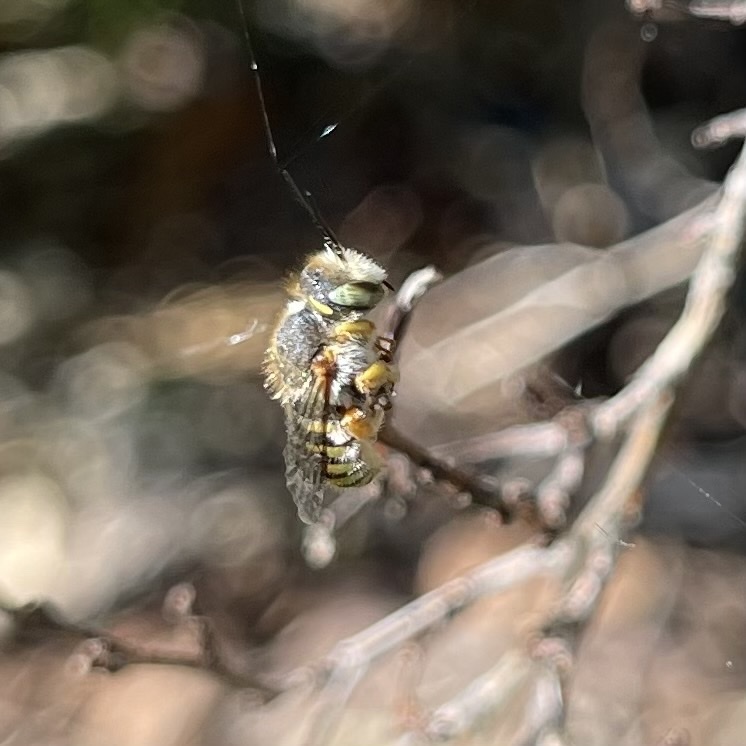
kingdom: Animalia
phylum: Arthropoda
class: Insecta
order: Hymenoptera
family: Megachilidae
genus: Anthidium
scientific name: Anthidium oblongatum
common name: Oblong wool carder bee
